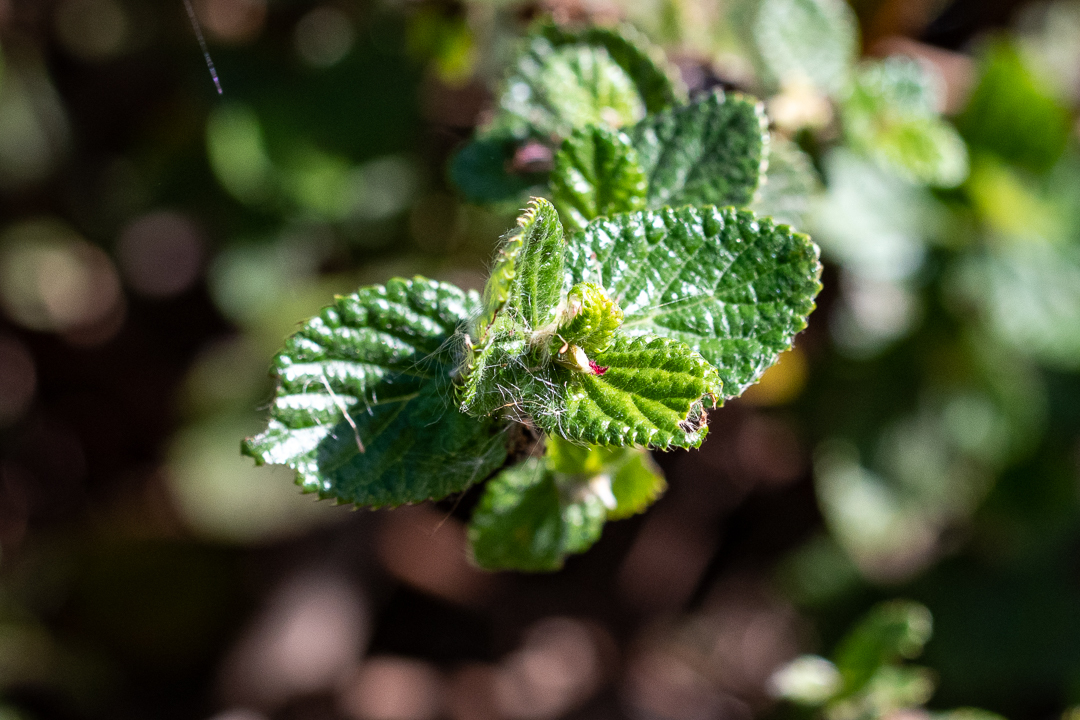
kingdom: Plantae
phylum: Tracheophyta
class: Magnoliopsida
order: Rosales
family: Rosaceae
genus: Cliffortia
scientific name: Cliffortia odorata
